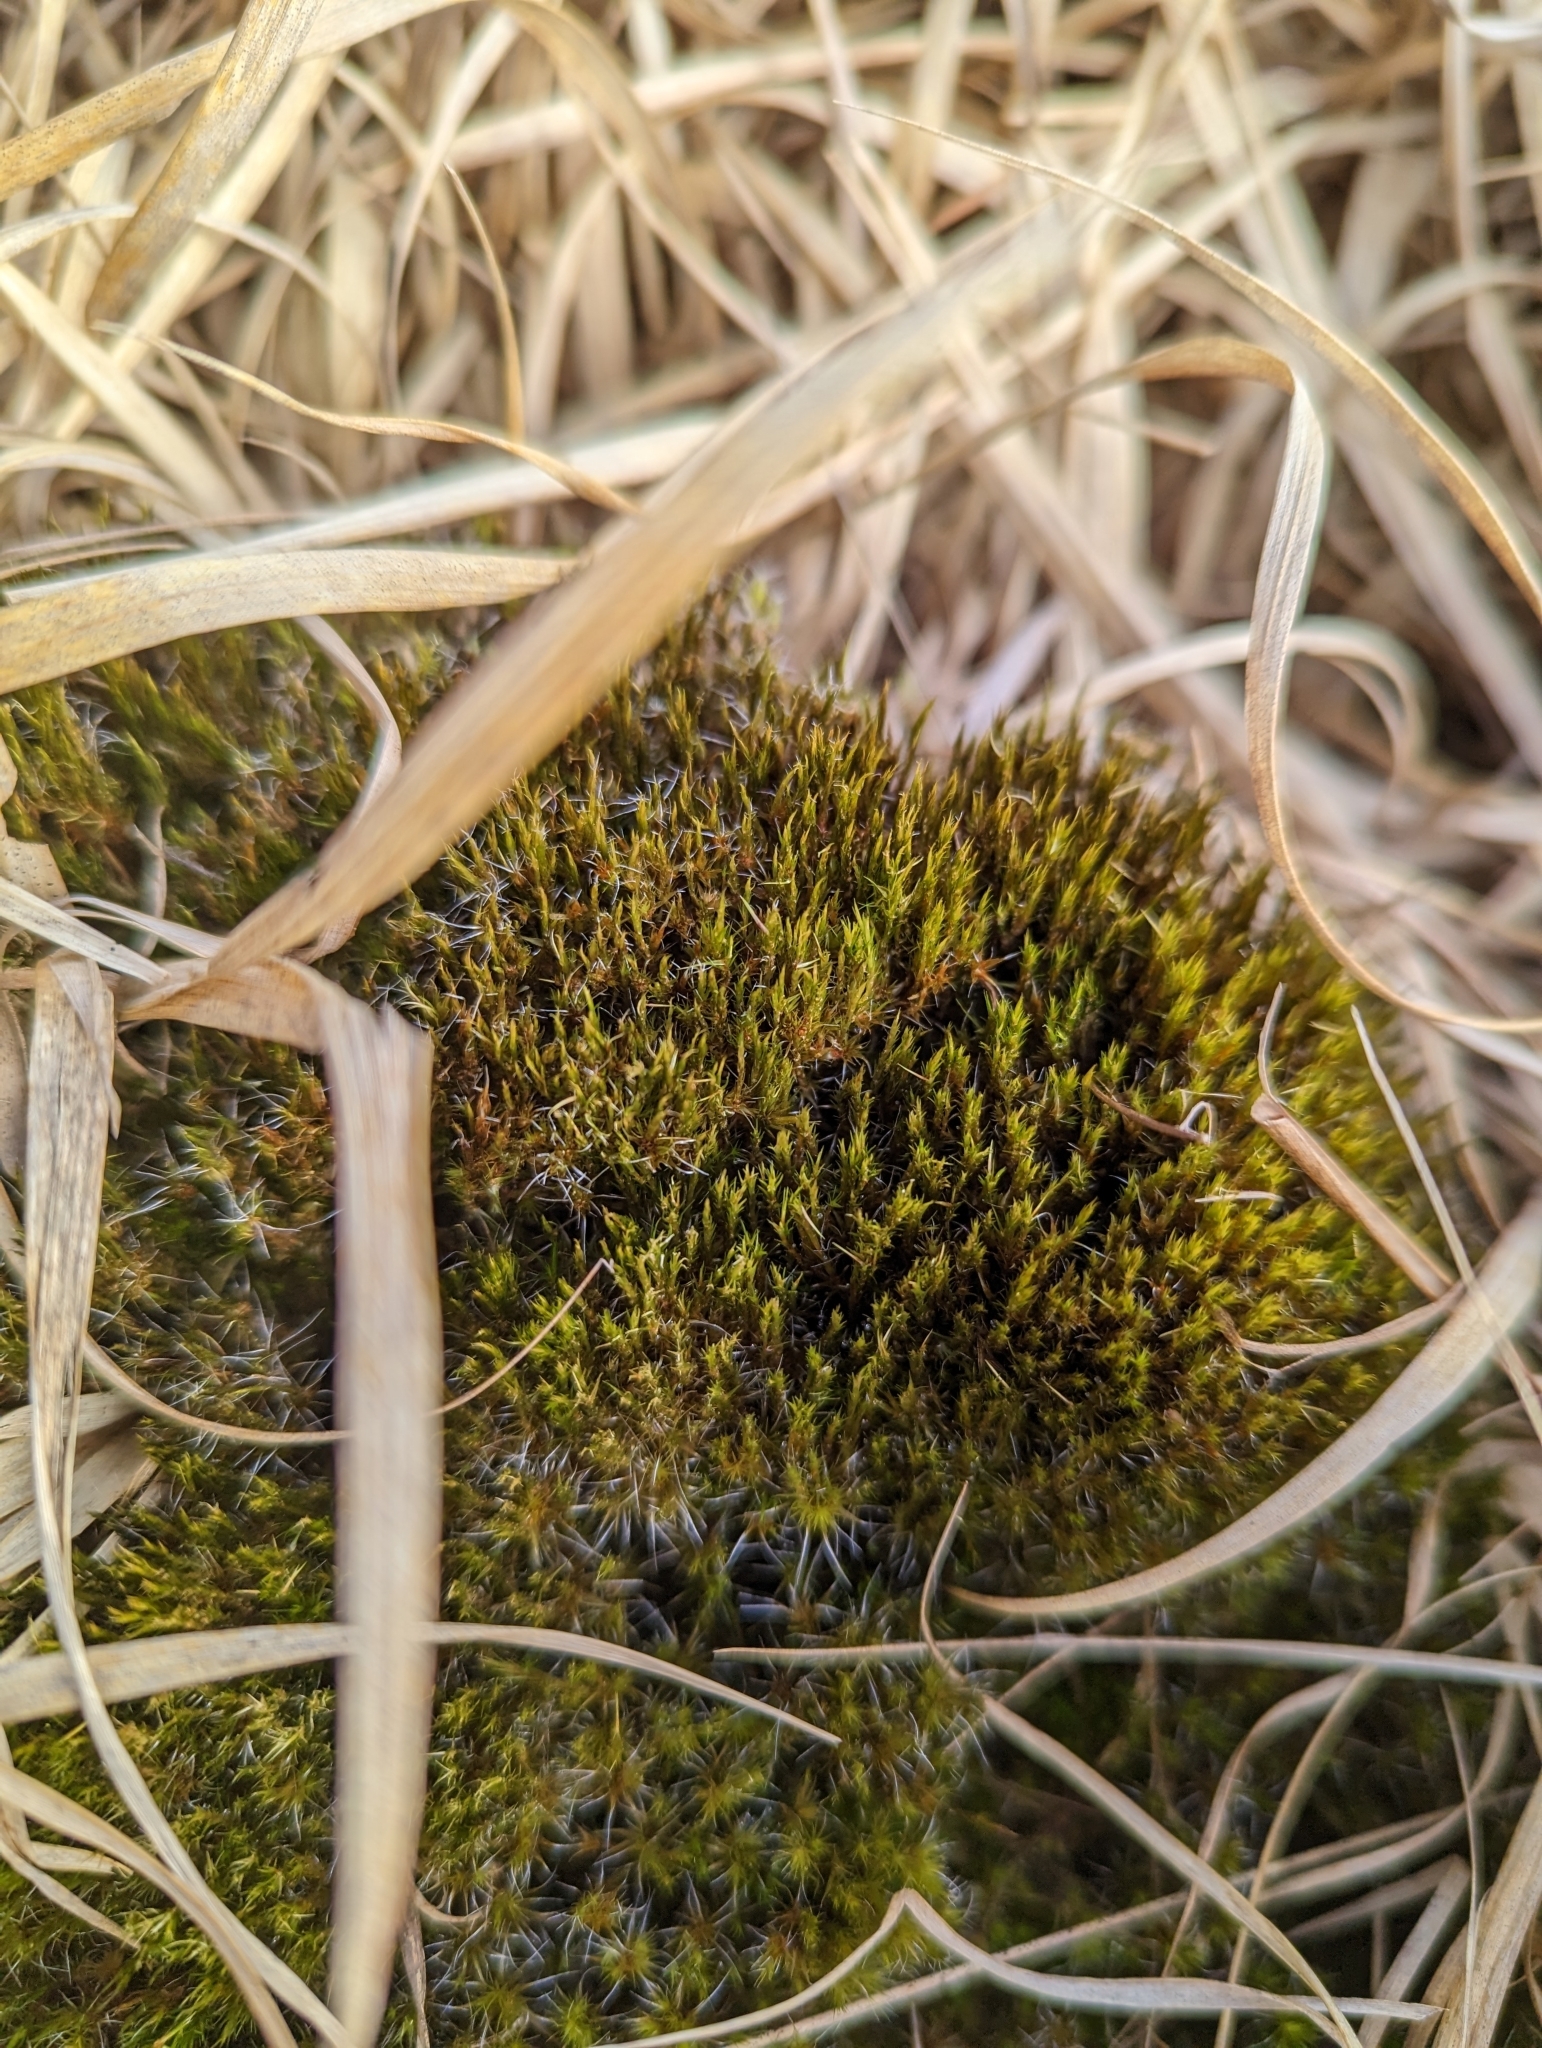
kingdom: Plantae
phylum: Bryophyta
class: Bryopsida
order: Dicranales
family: Leucobryaceae
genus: Campylopus
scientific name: Campylopus introflexus
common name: Heath star moss
